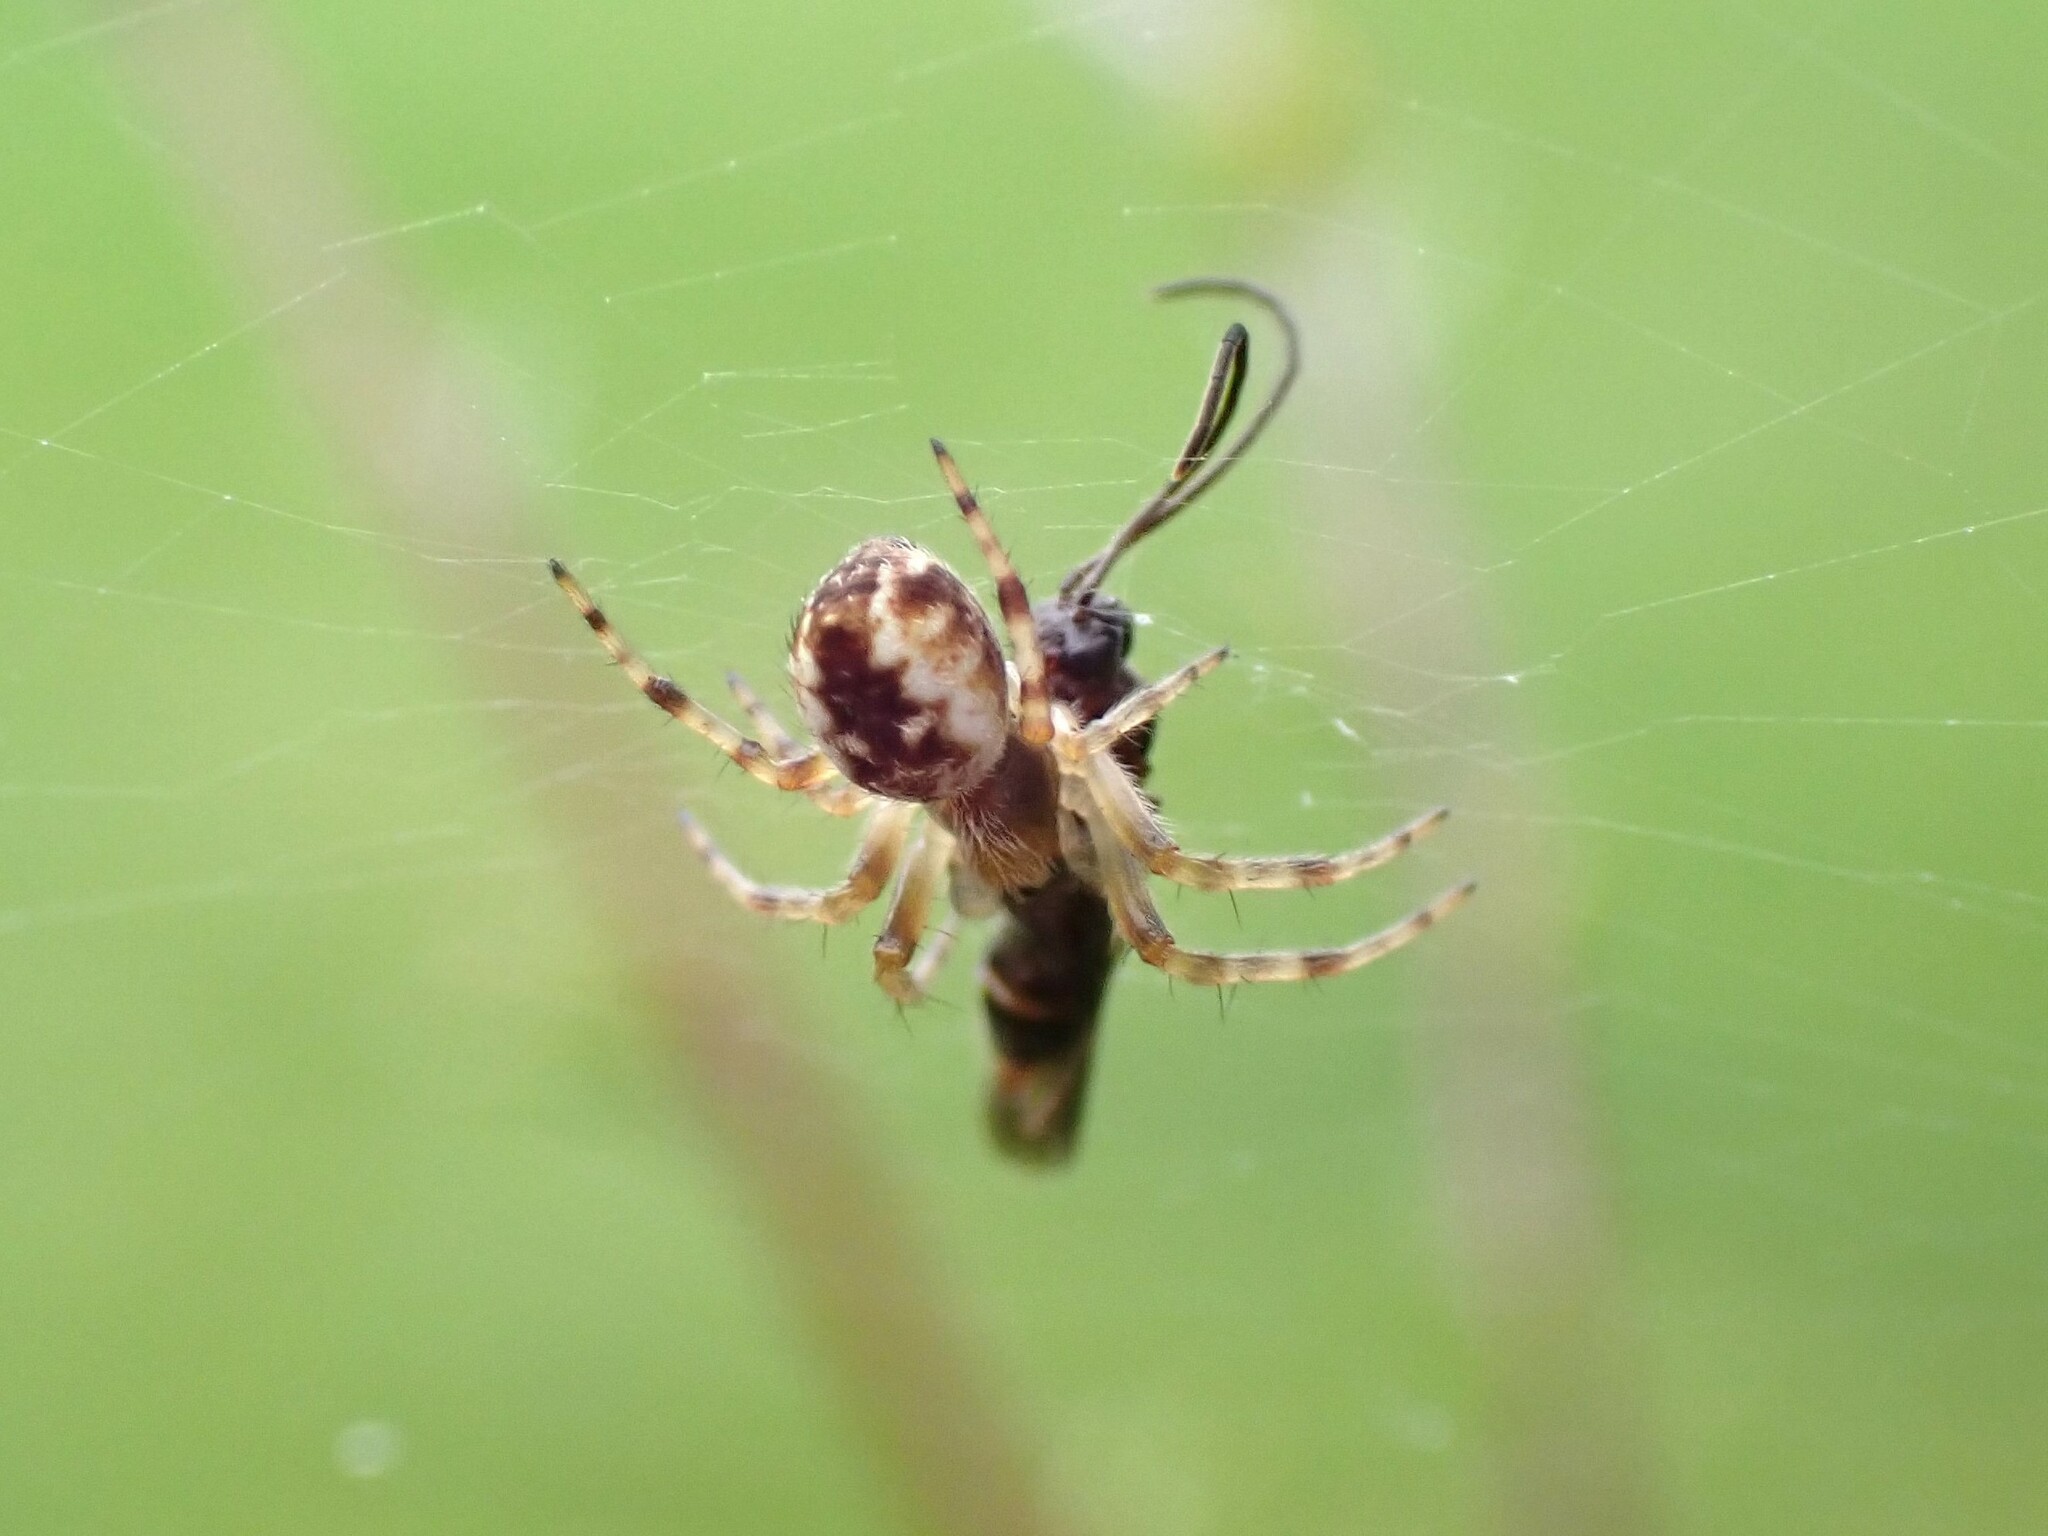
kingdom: Animalia
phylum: Arthropoda
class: Arachnida
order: Araneae
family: Araneidae
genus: Salsa
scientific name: Salsa fuliginata
